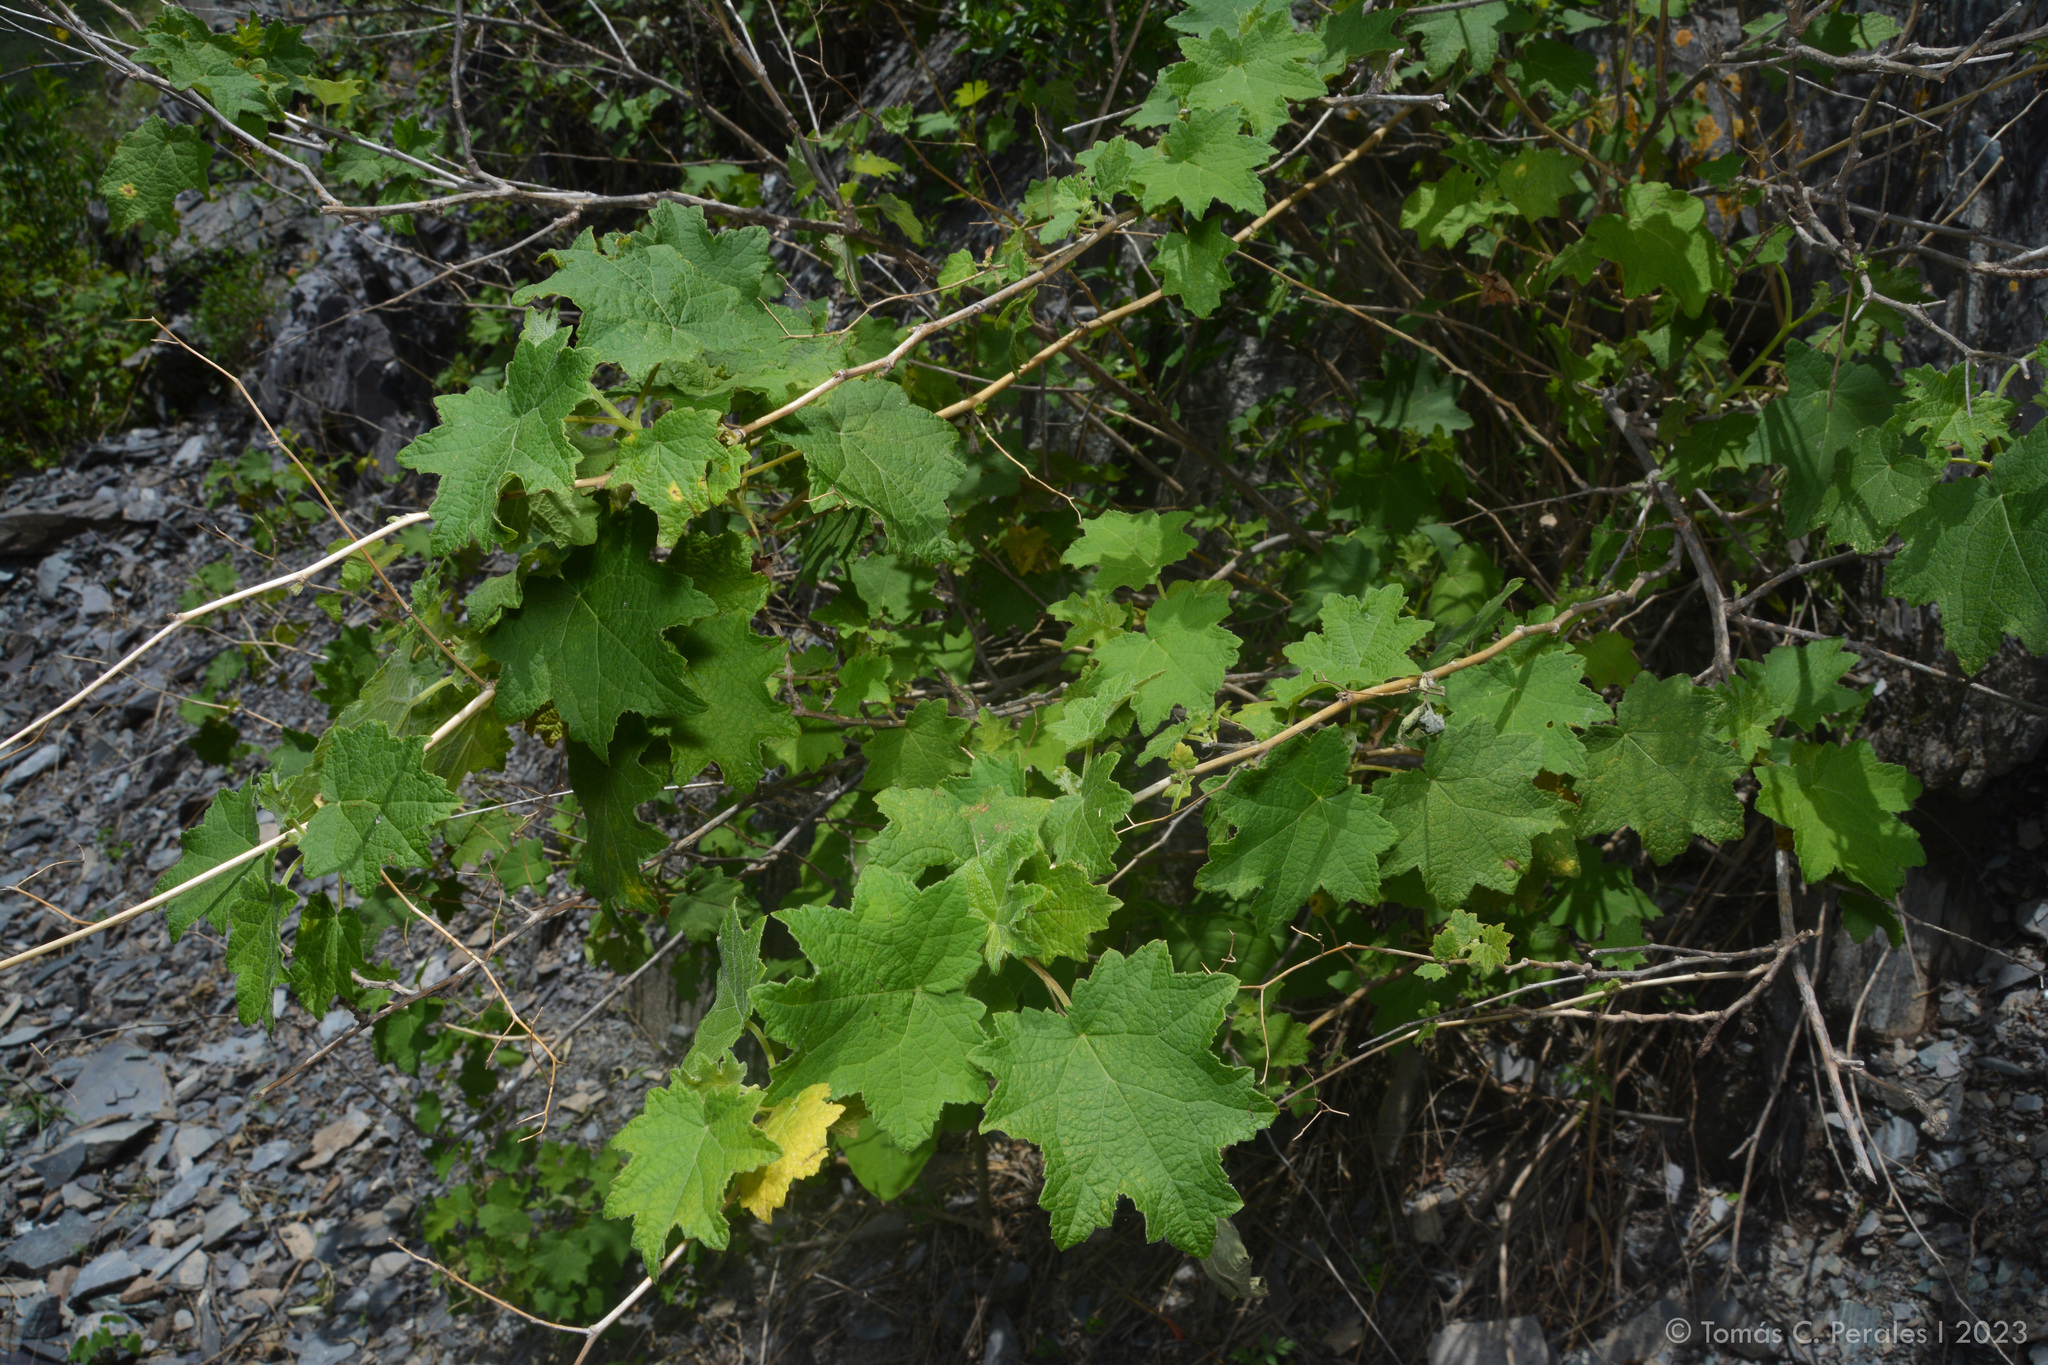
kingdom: Plantae
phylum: Tracheophyta
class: Magnoliopsida
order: Asterales
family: Asteraceae
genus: Jungia
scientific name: Jungia polita
